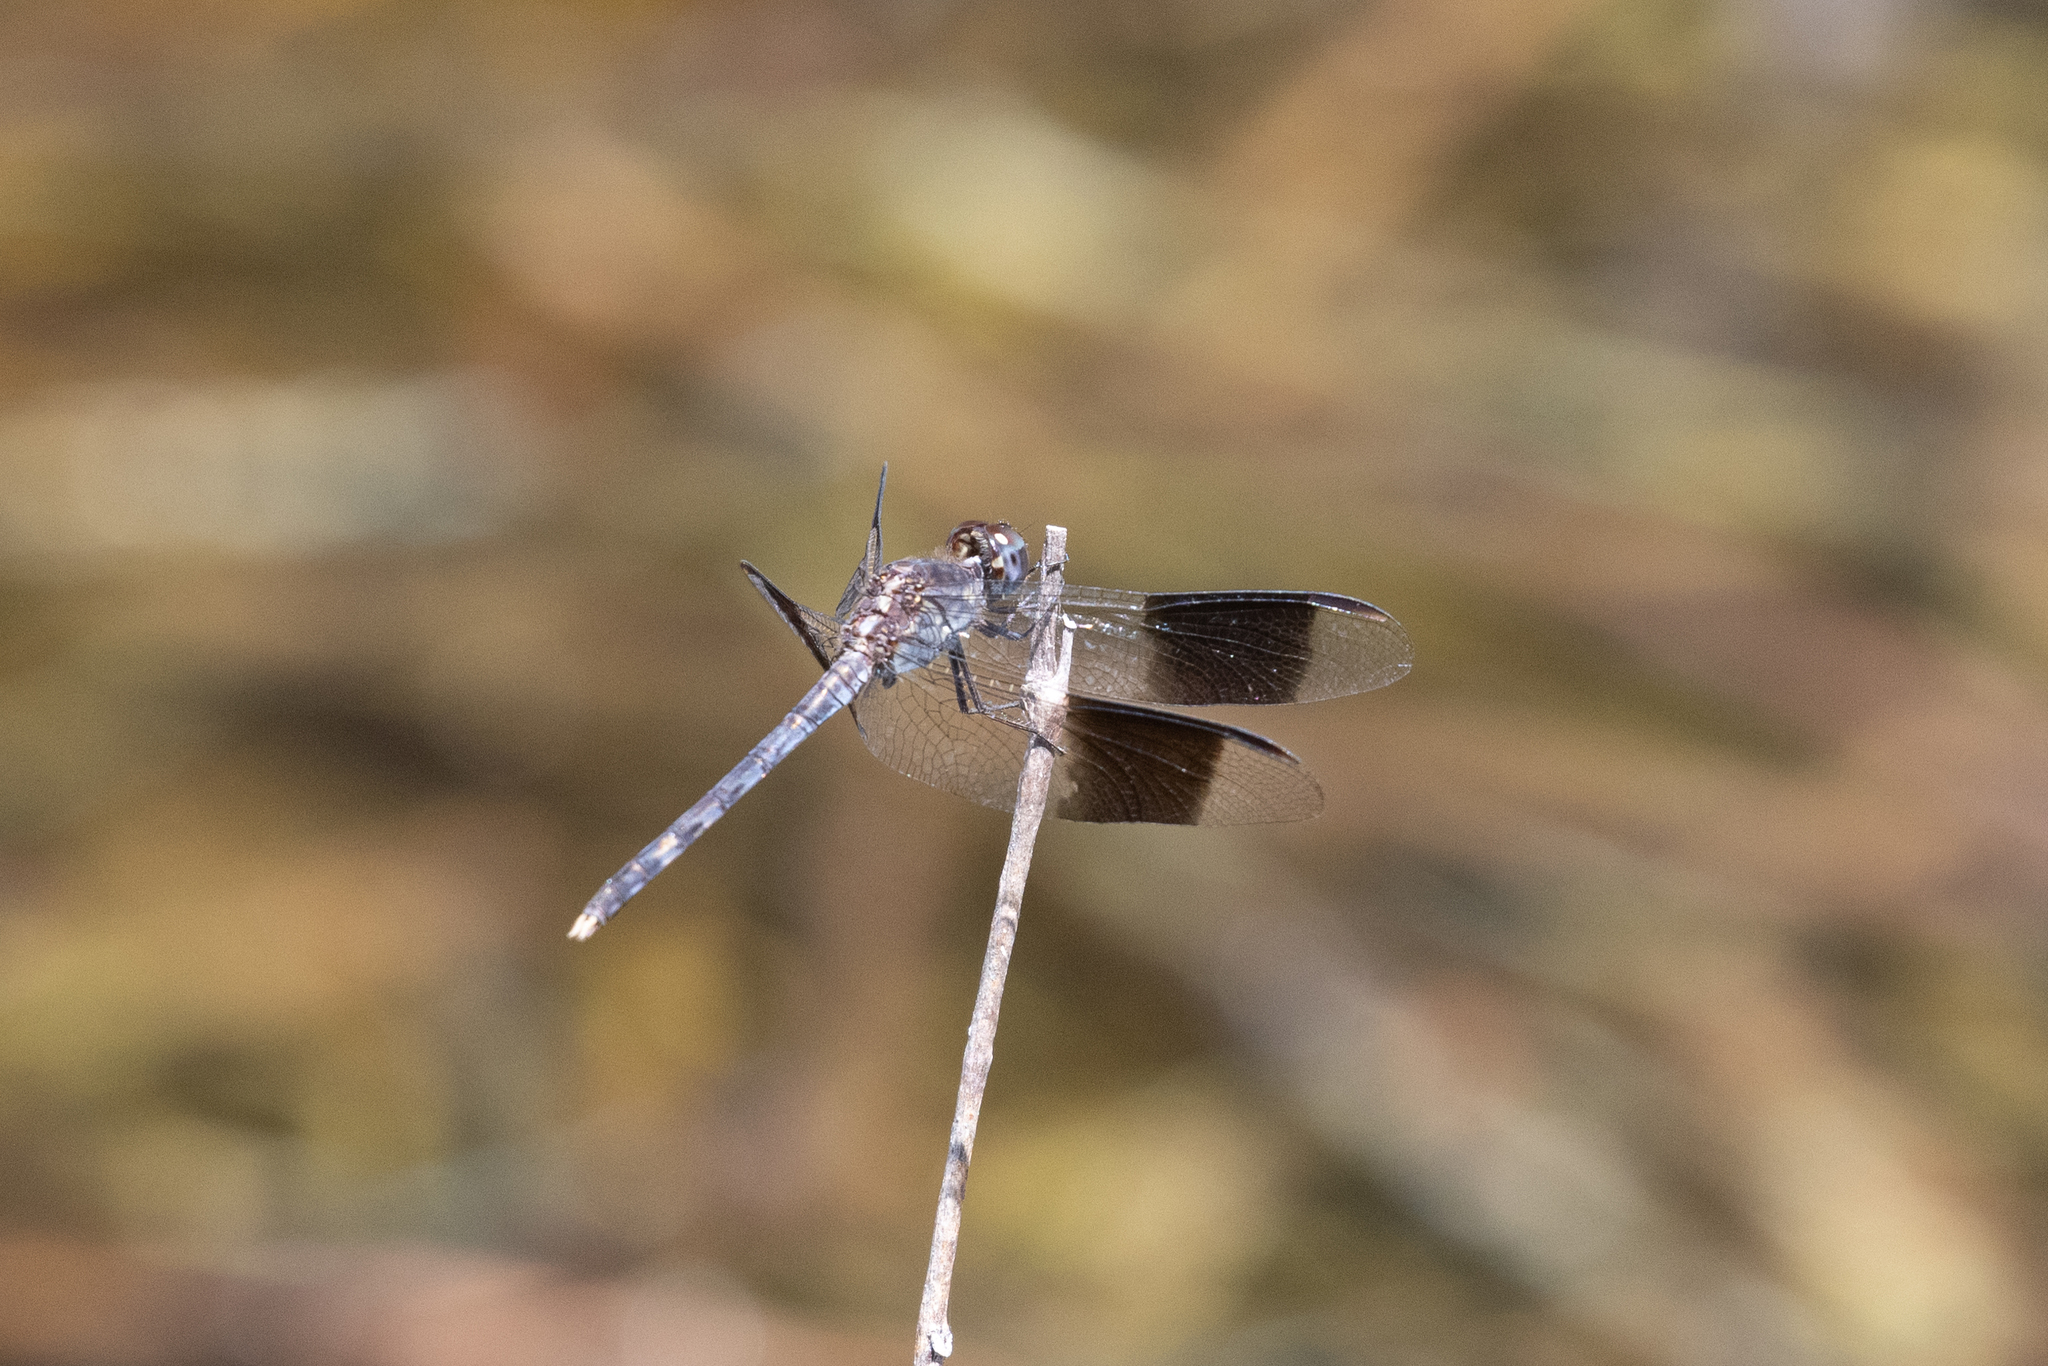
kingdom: Animalia
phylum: Arthropoda
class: Insecta
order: Odonata
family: Libellulidae
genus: Erythrodiplax
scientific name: Erythrodiplax umbrata
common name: Band-winged dragonlet
